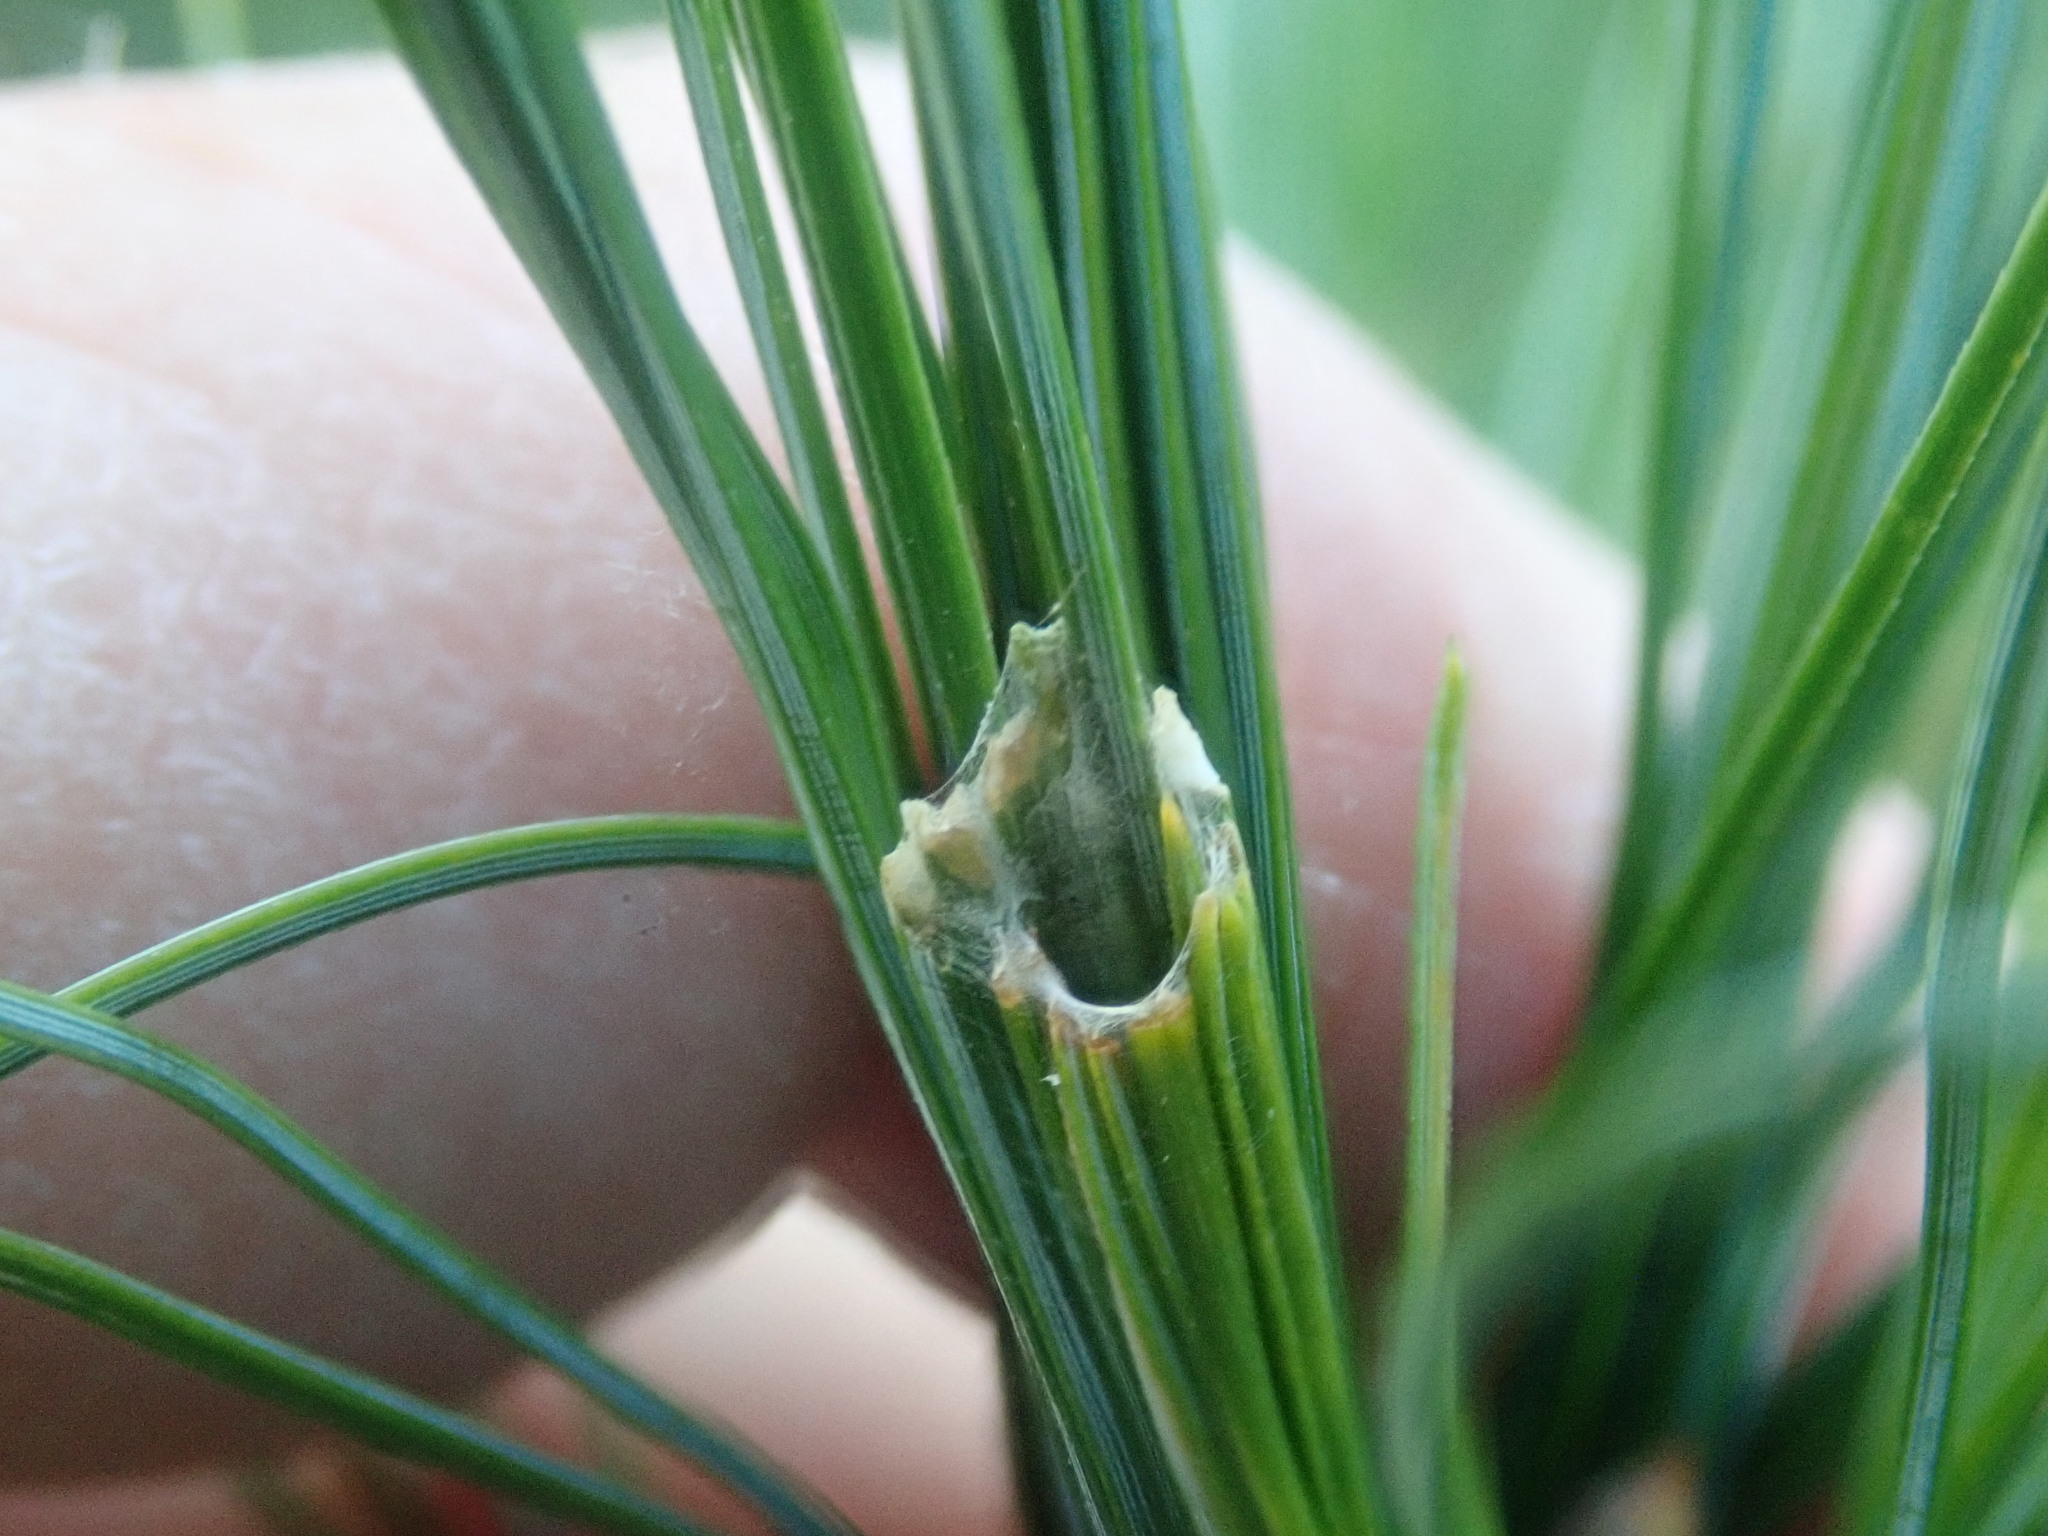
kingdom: Animalia
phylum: Arthropoda
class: Insecta
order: Lepidoptera
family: Tortricidae
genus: Argyrotaenia
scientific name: Argyrotaenia pinatubana
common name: Pine tube moth
